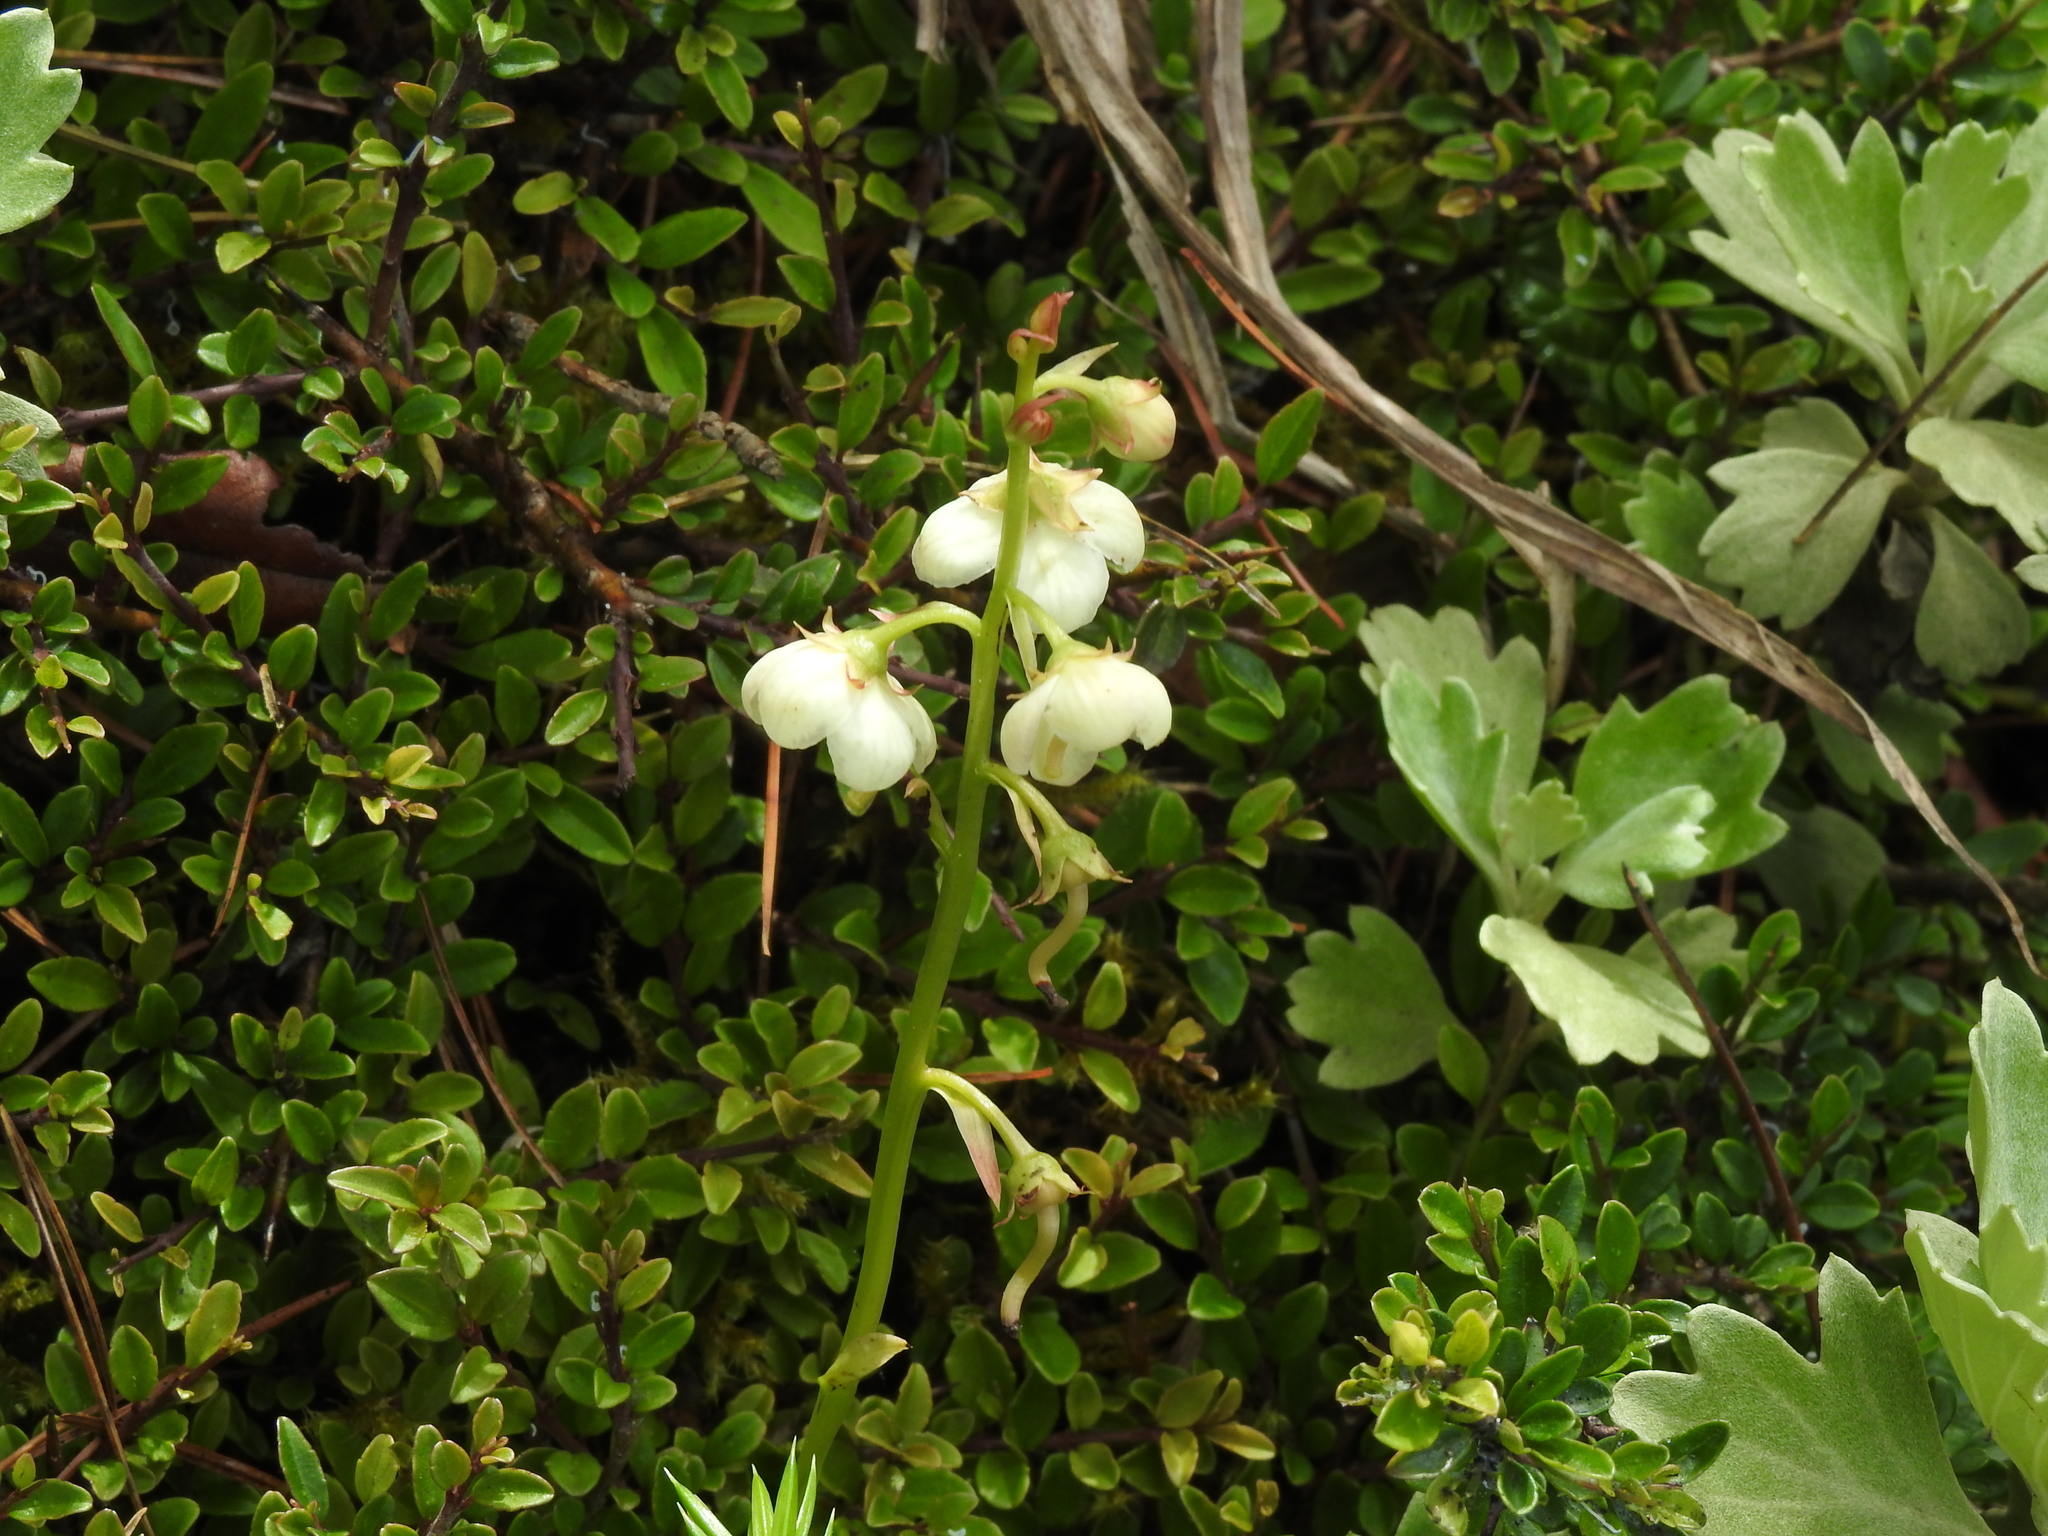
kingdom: Plantae
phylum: Tracheophyta
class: Magnoliopsida
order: Ericales
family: Ericaceae
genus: Pyrola
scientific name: Pyrola morrisonensis
